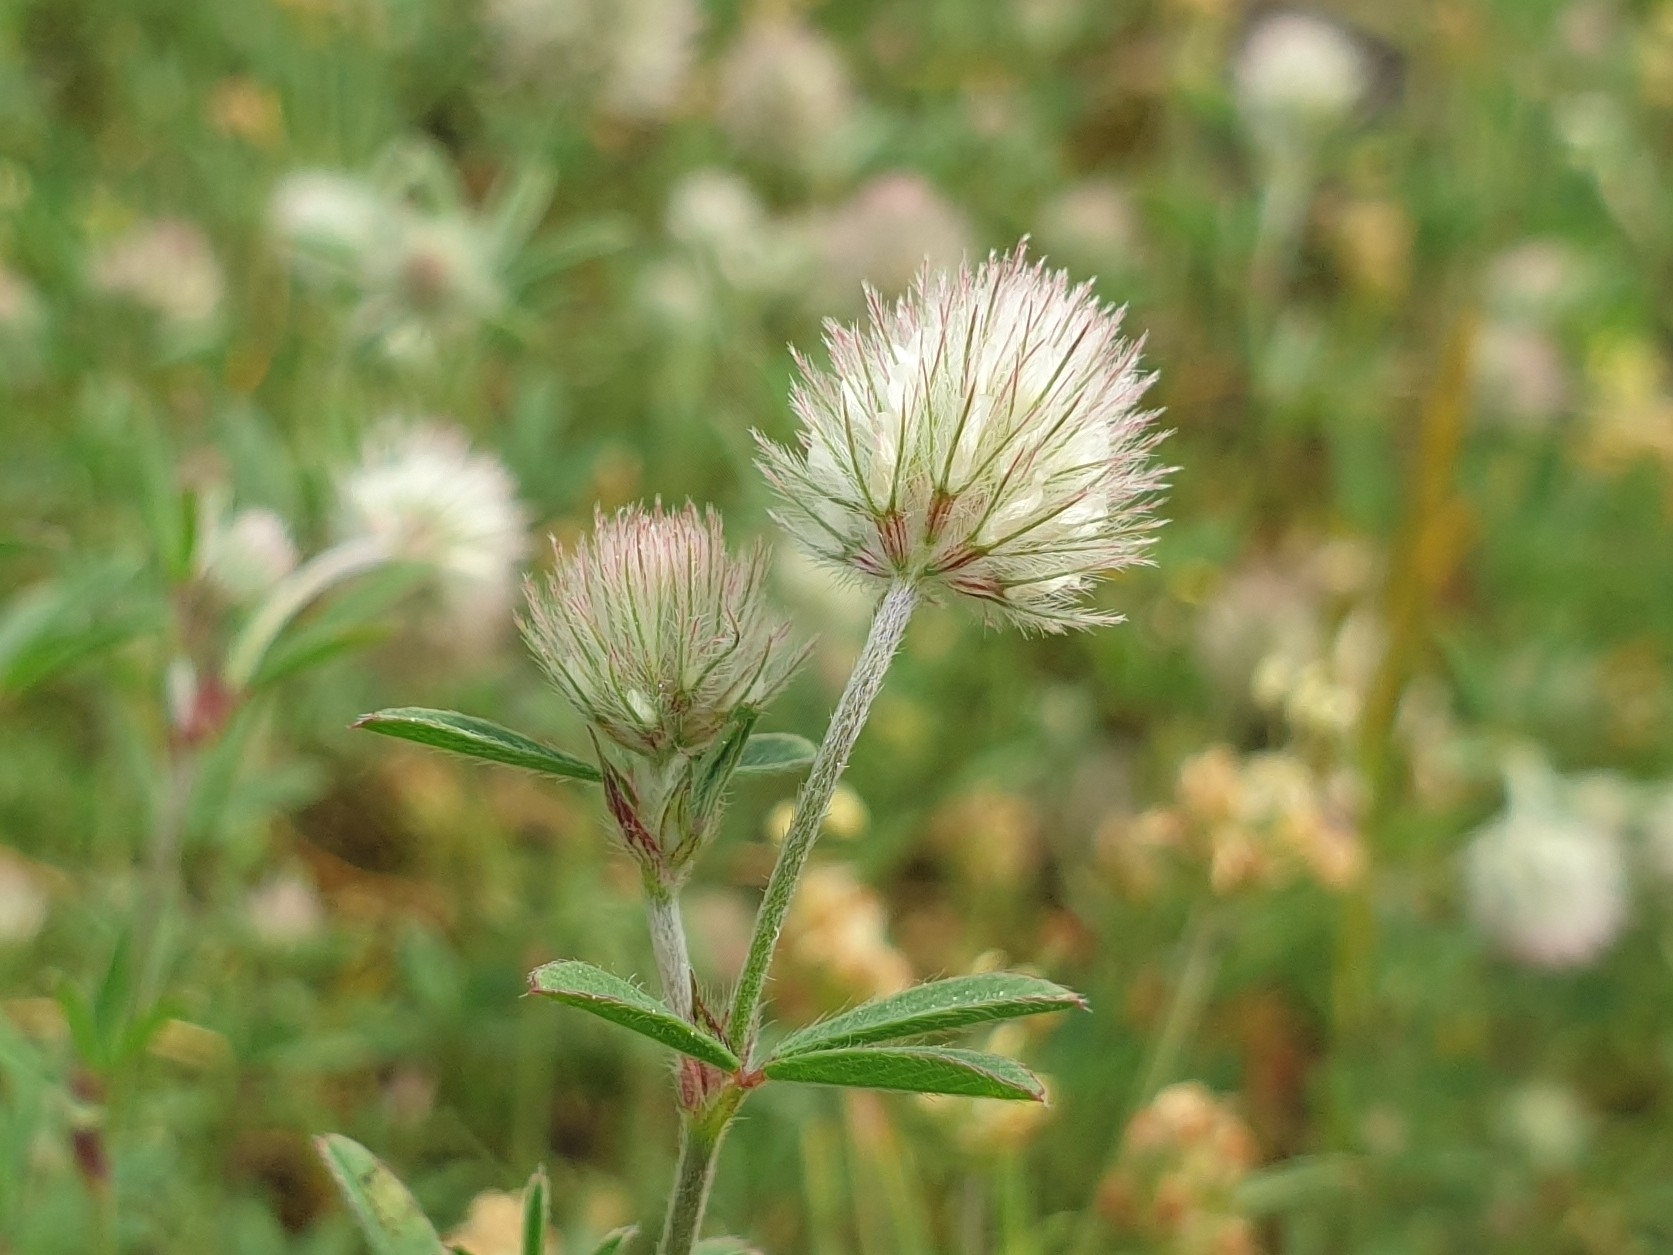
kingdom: Plantae
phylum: Tracheophyta
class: Magnoliopsida
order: Fabales
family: Fabaceae
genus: Trifolium
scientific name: Trifolium arvense
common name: Hare's-foot clover
